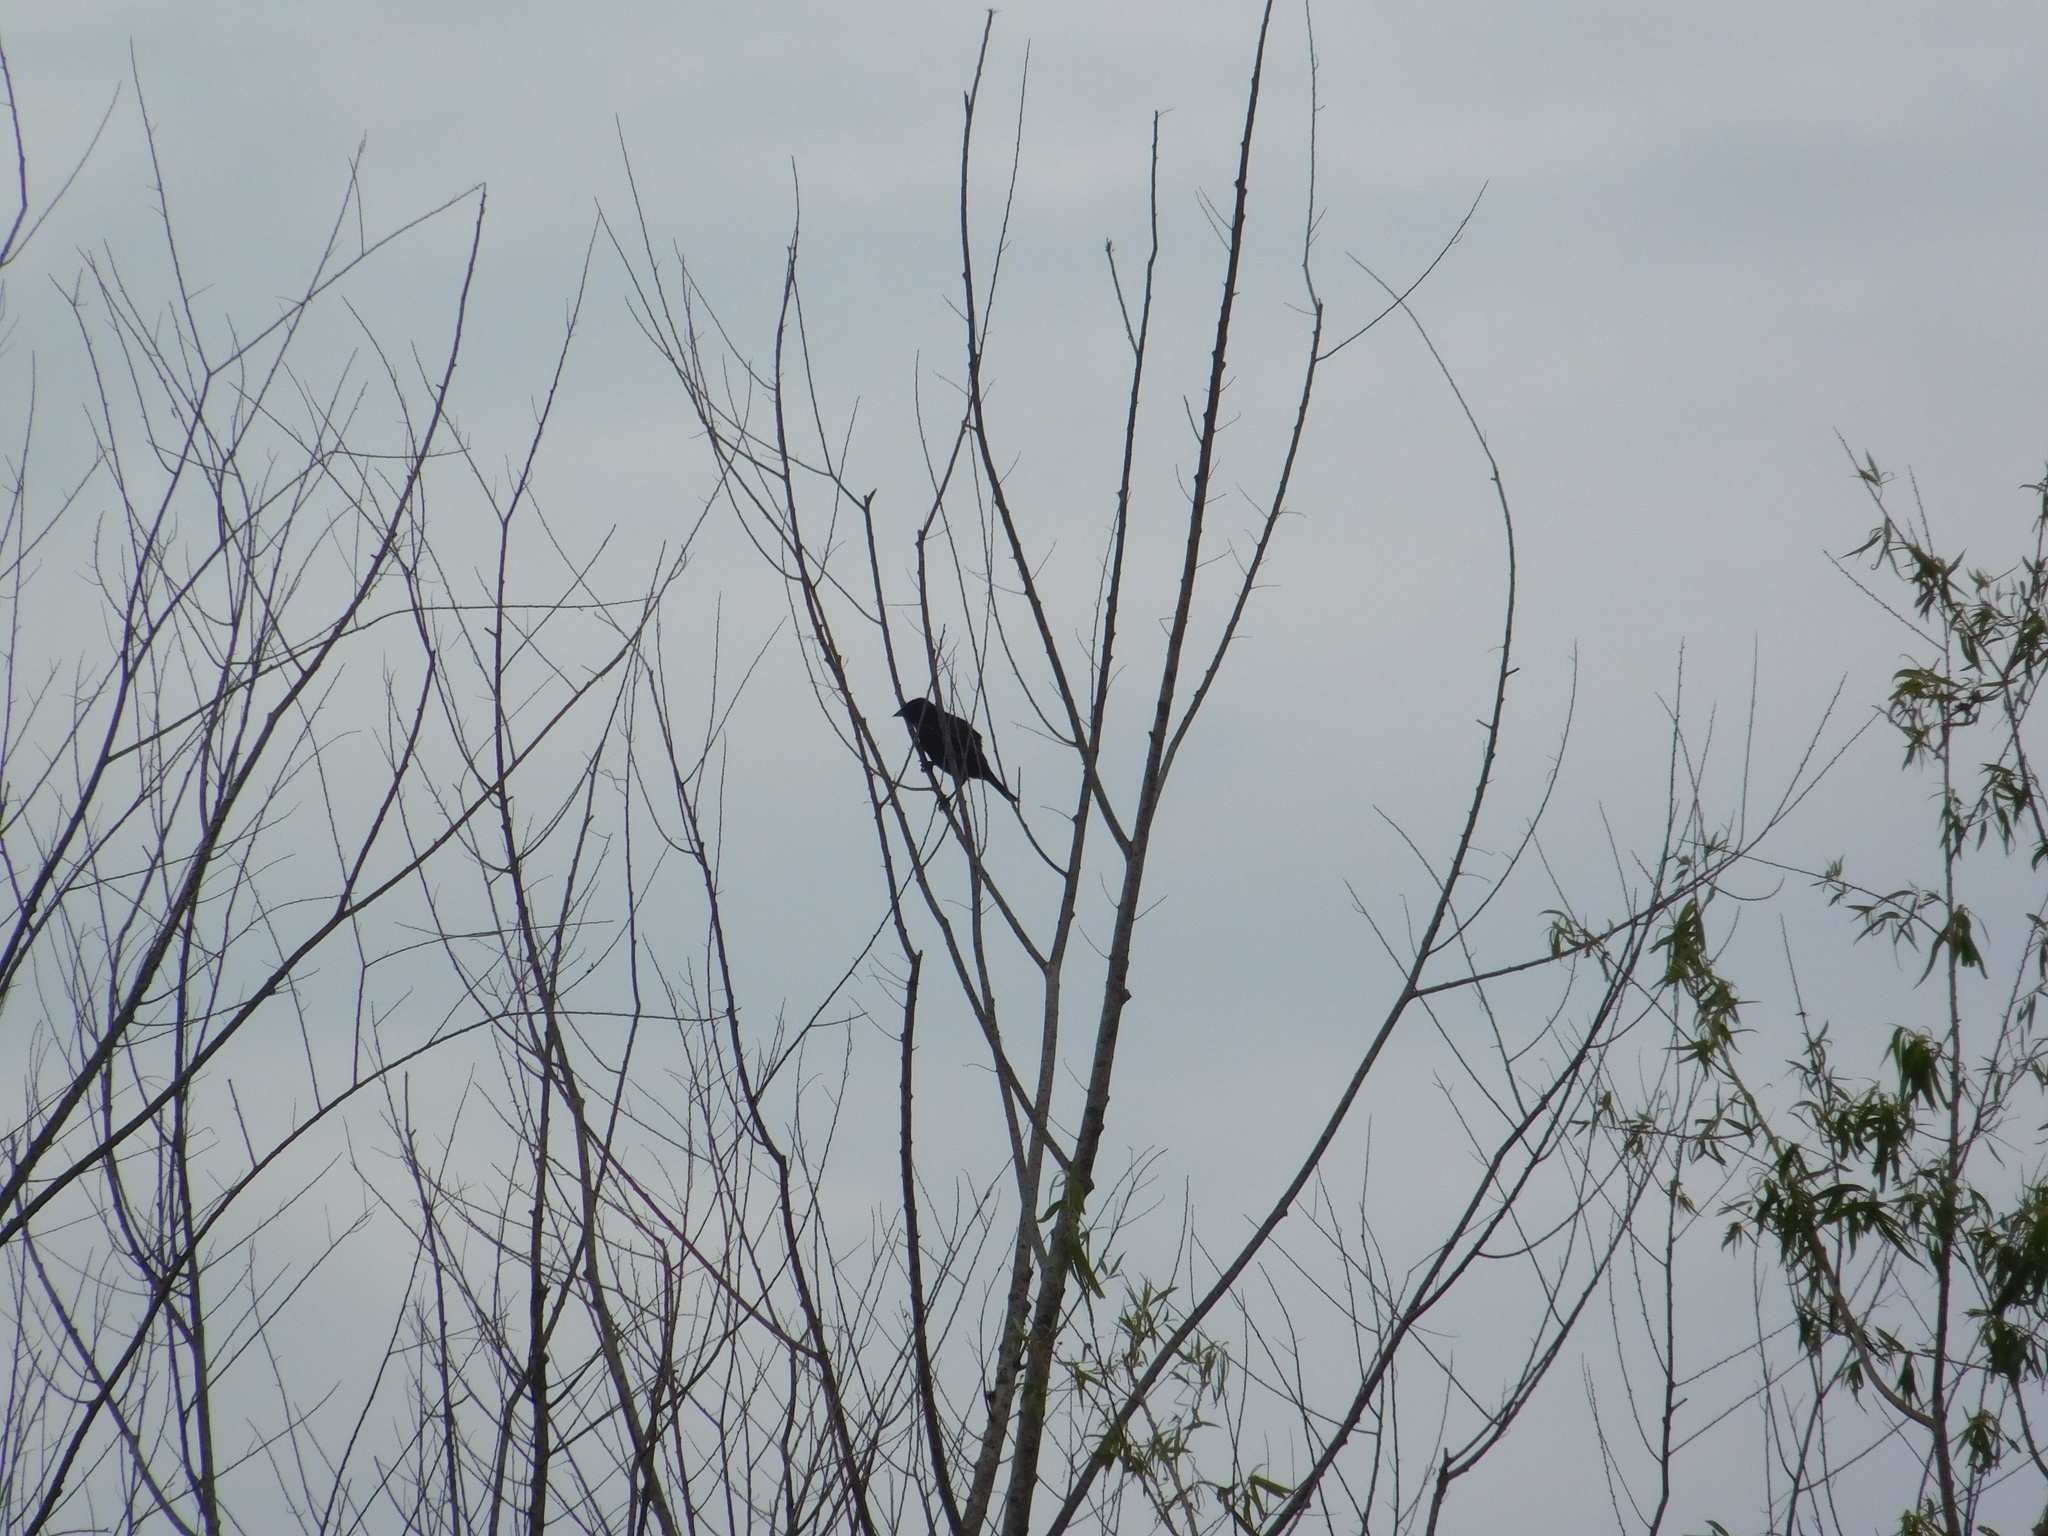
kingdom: Animalia
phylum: Chordata
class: Aves
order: Passeriformes
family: Icteridae
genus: Molothrus
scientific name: Molothrus bonariensis
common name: Shiny cowbird
